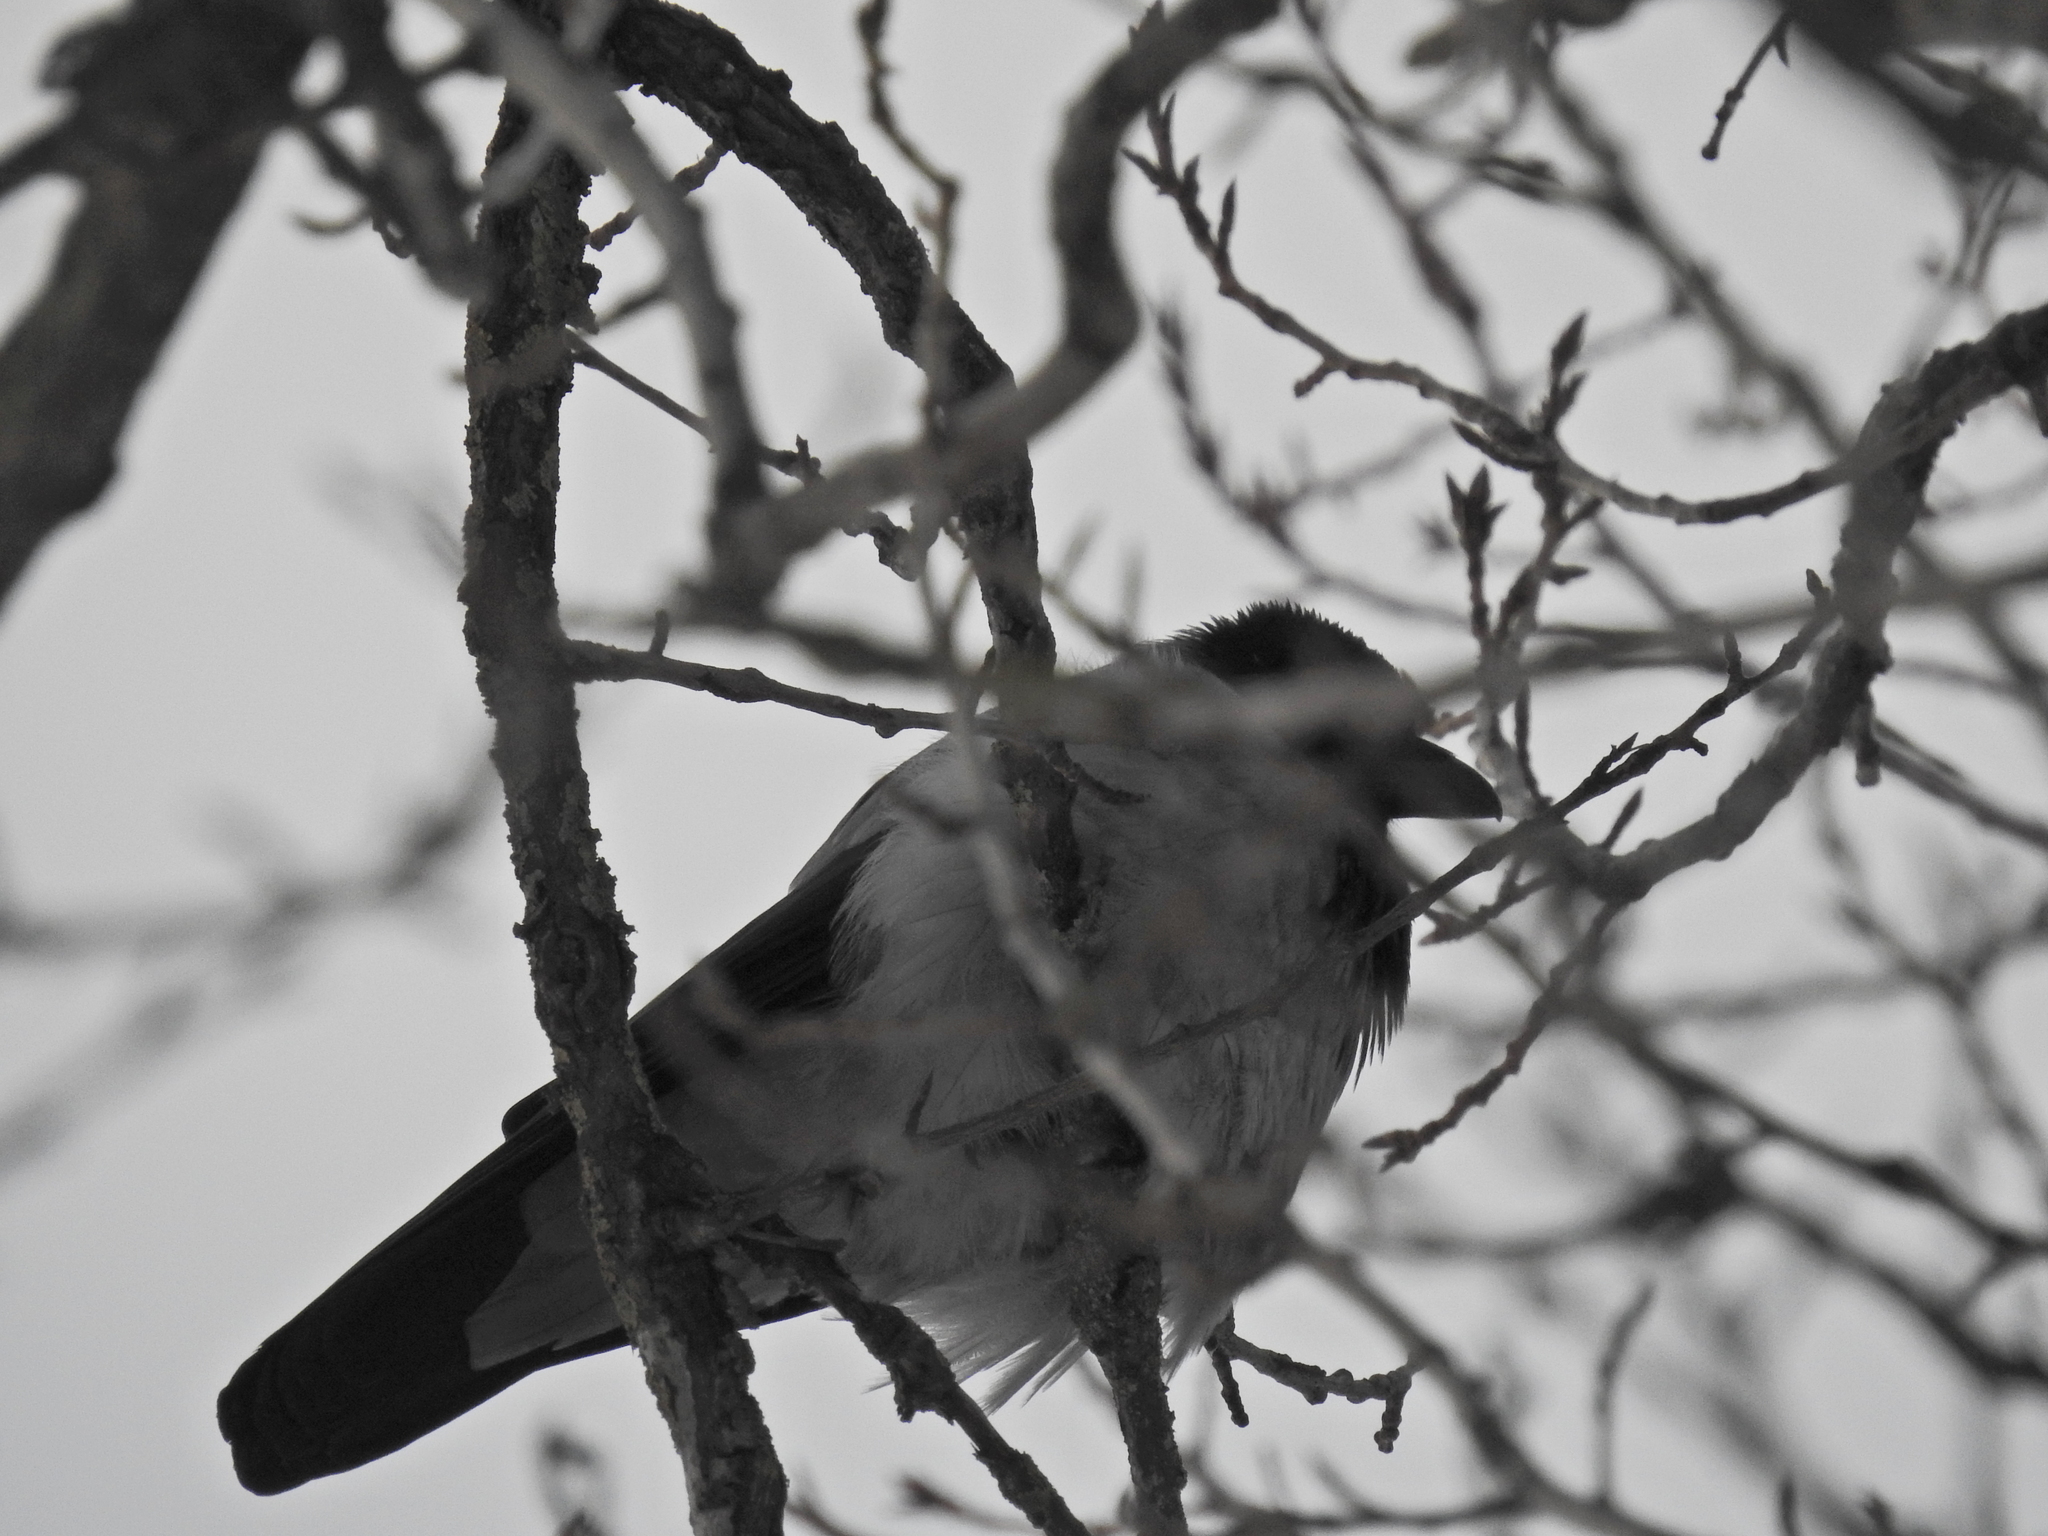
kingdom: Animalia
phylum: Chordata
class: Aves
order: Passeriformes
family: Corvidae
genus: Corvus
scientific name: Corvus cornix
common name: Hooded crow
